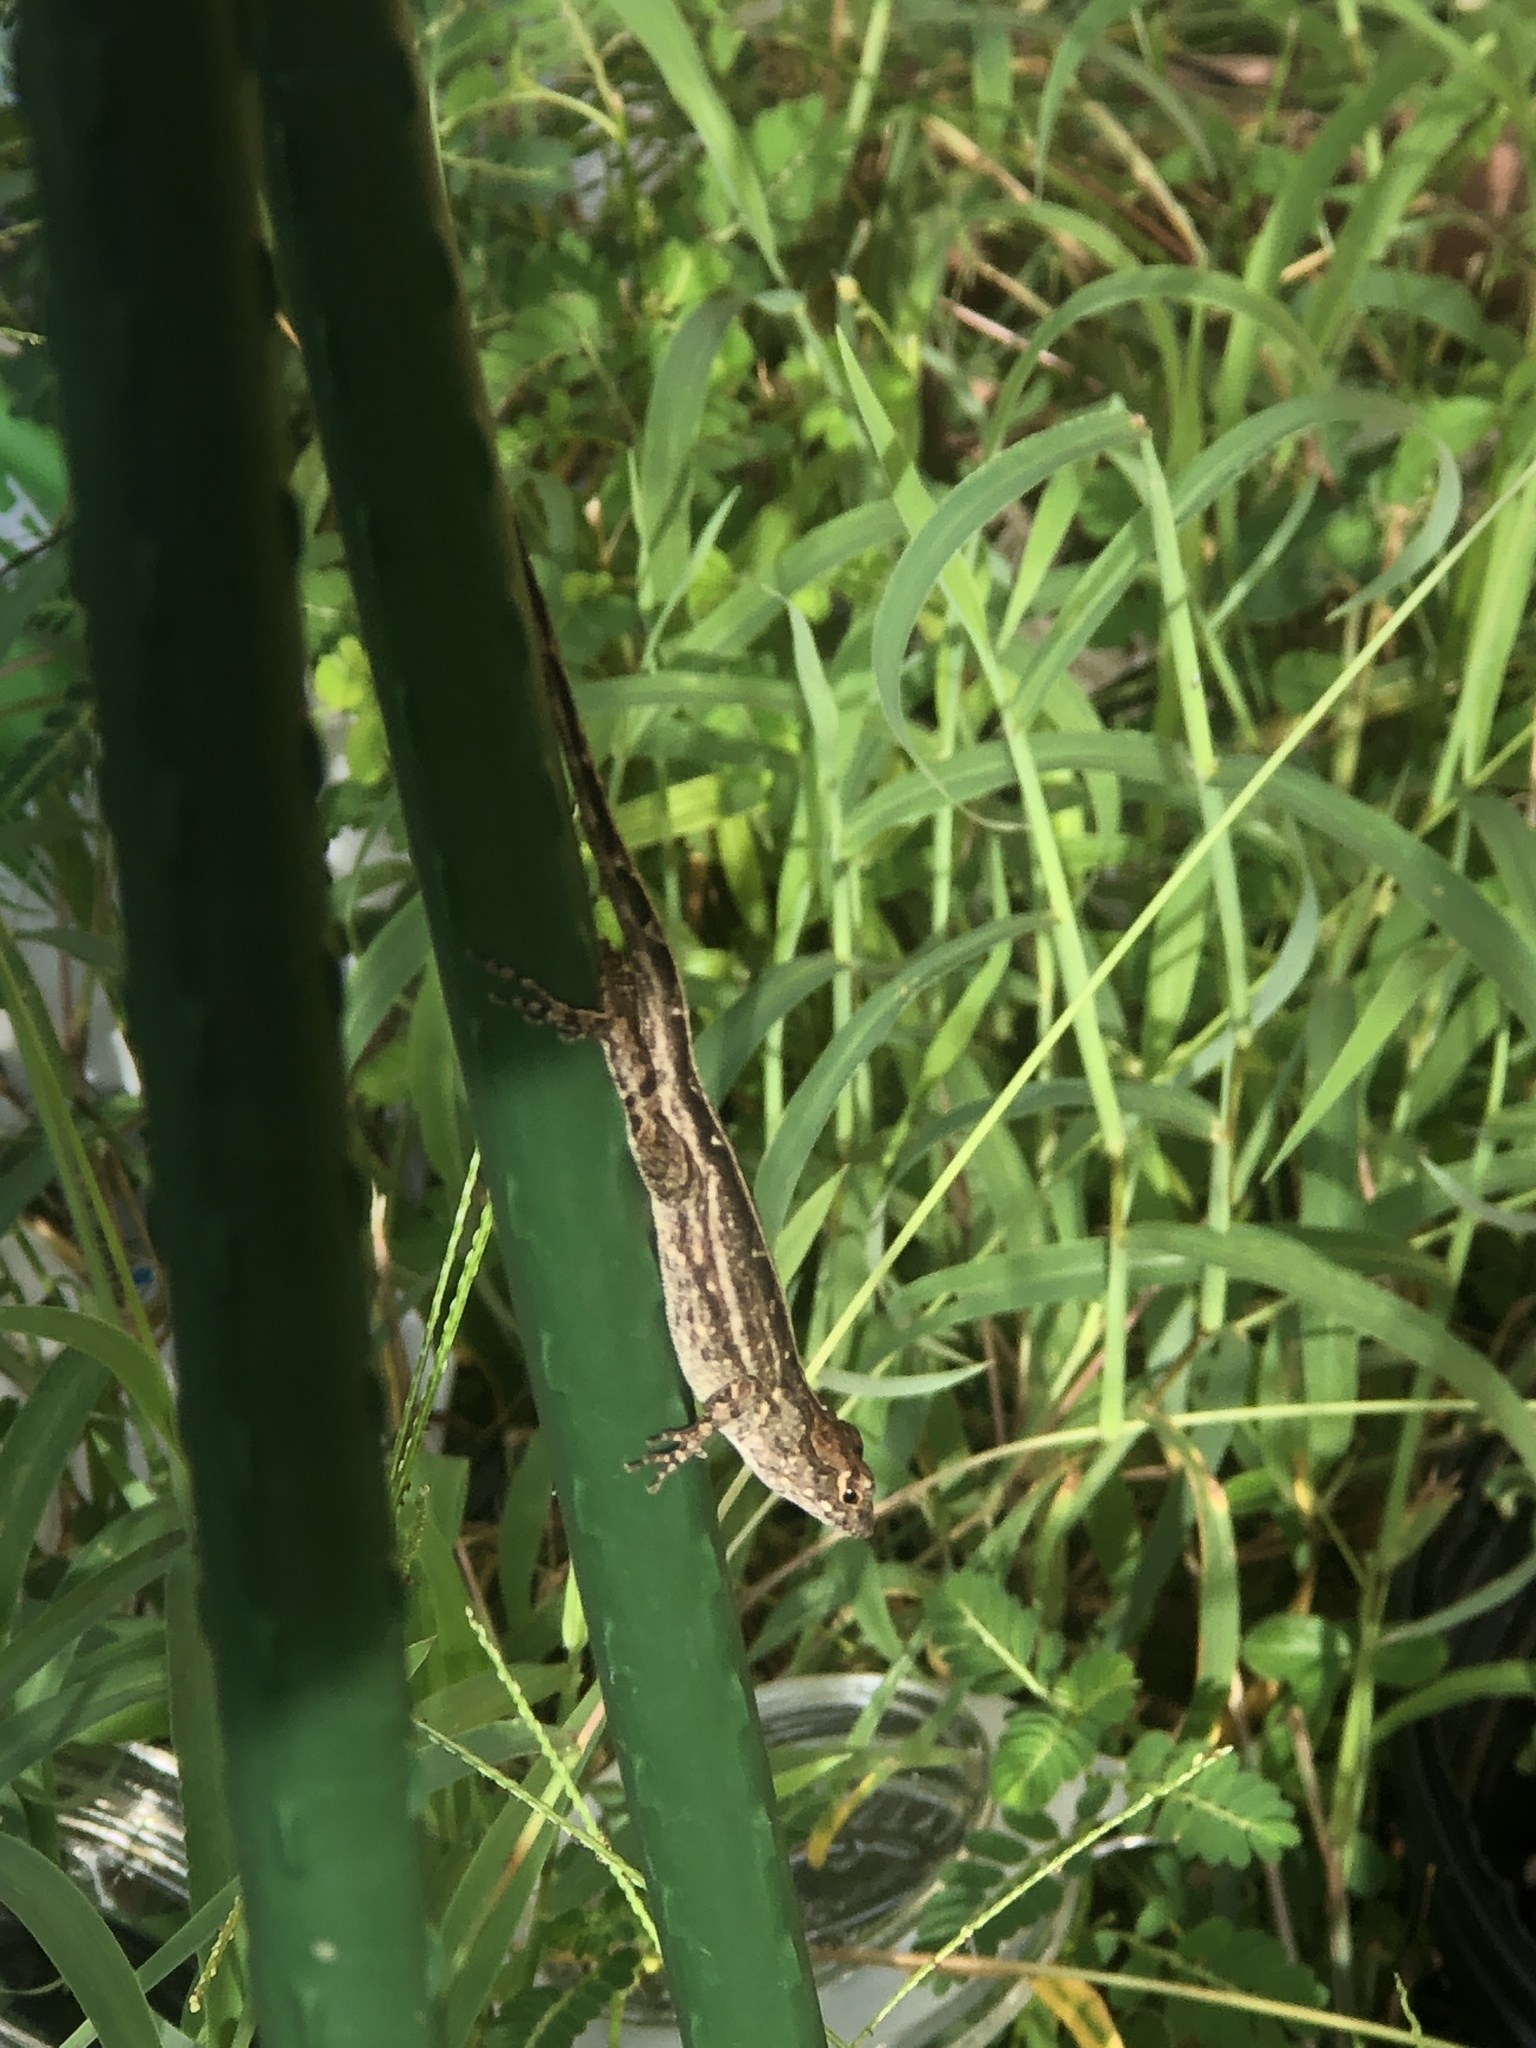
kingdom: Animalia
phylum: Chordata
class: Squamata
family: Dactyloidae
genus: Anolis
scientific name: Anolis sagrei
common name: Brown anole
